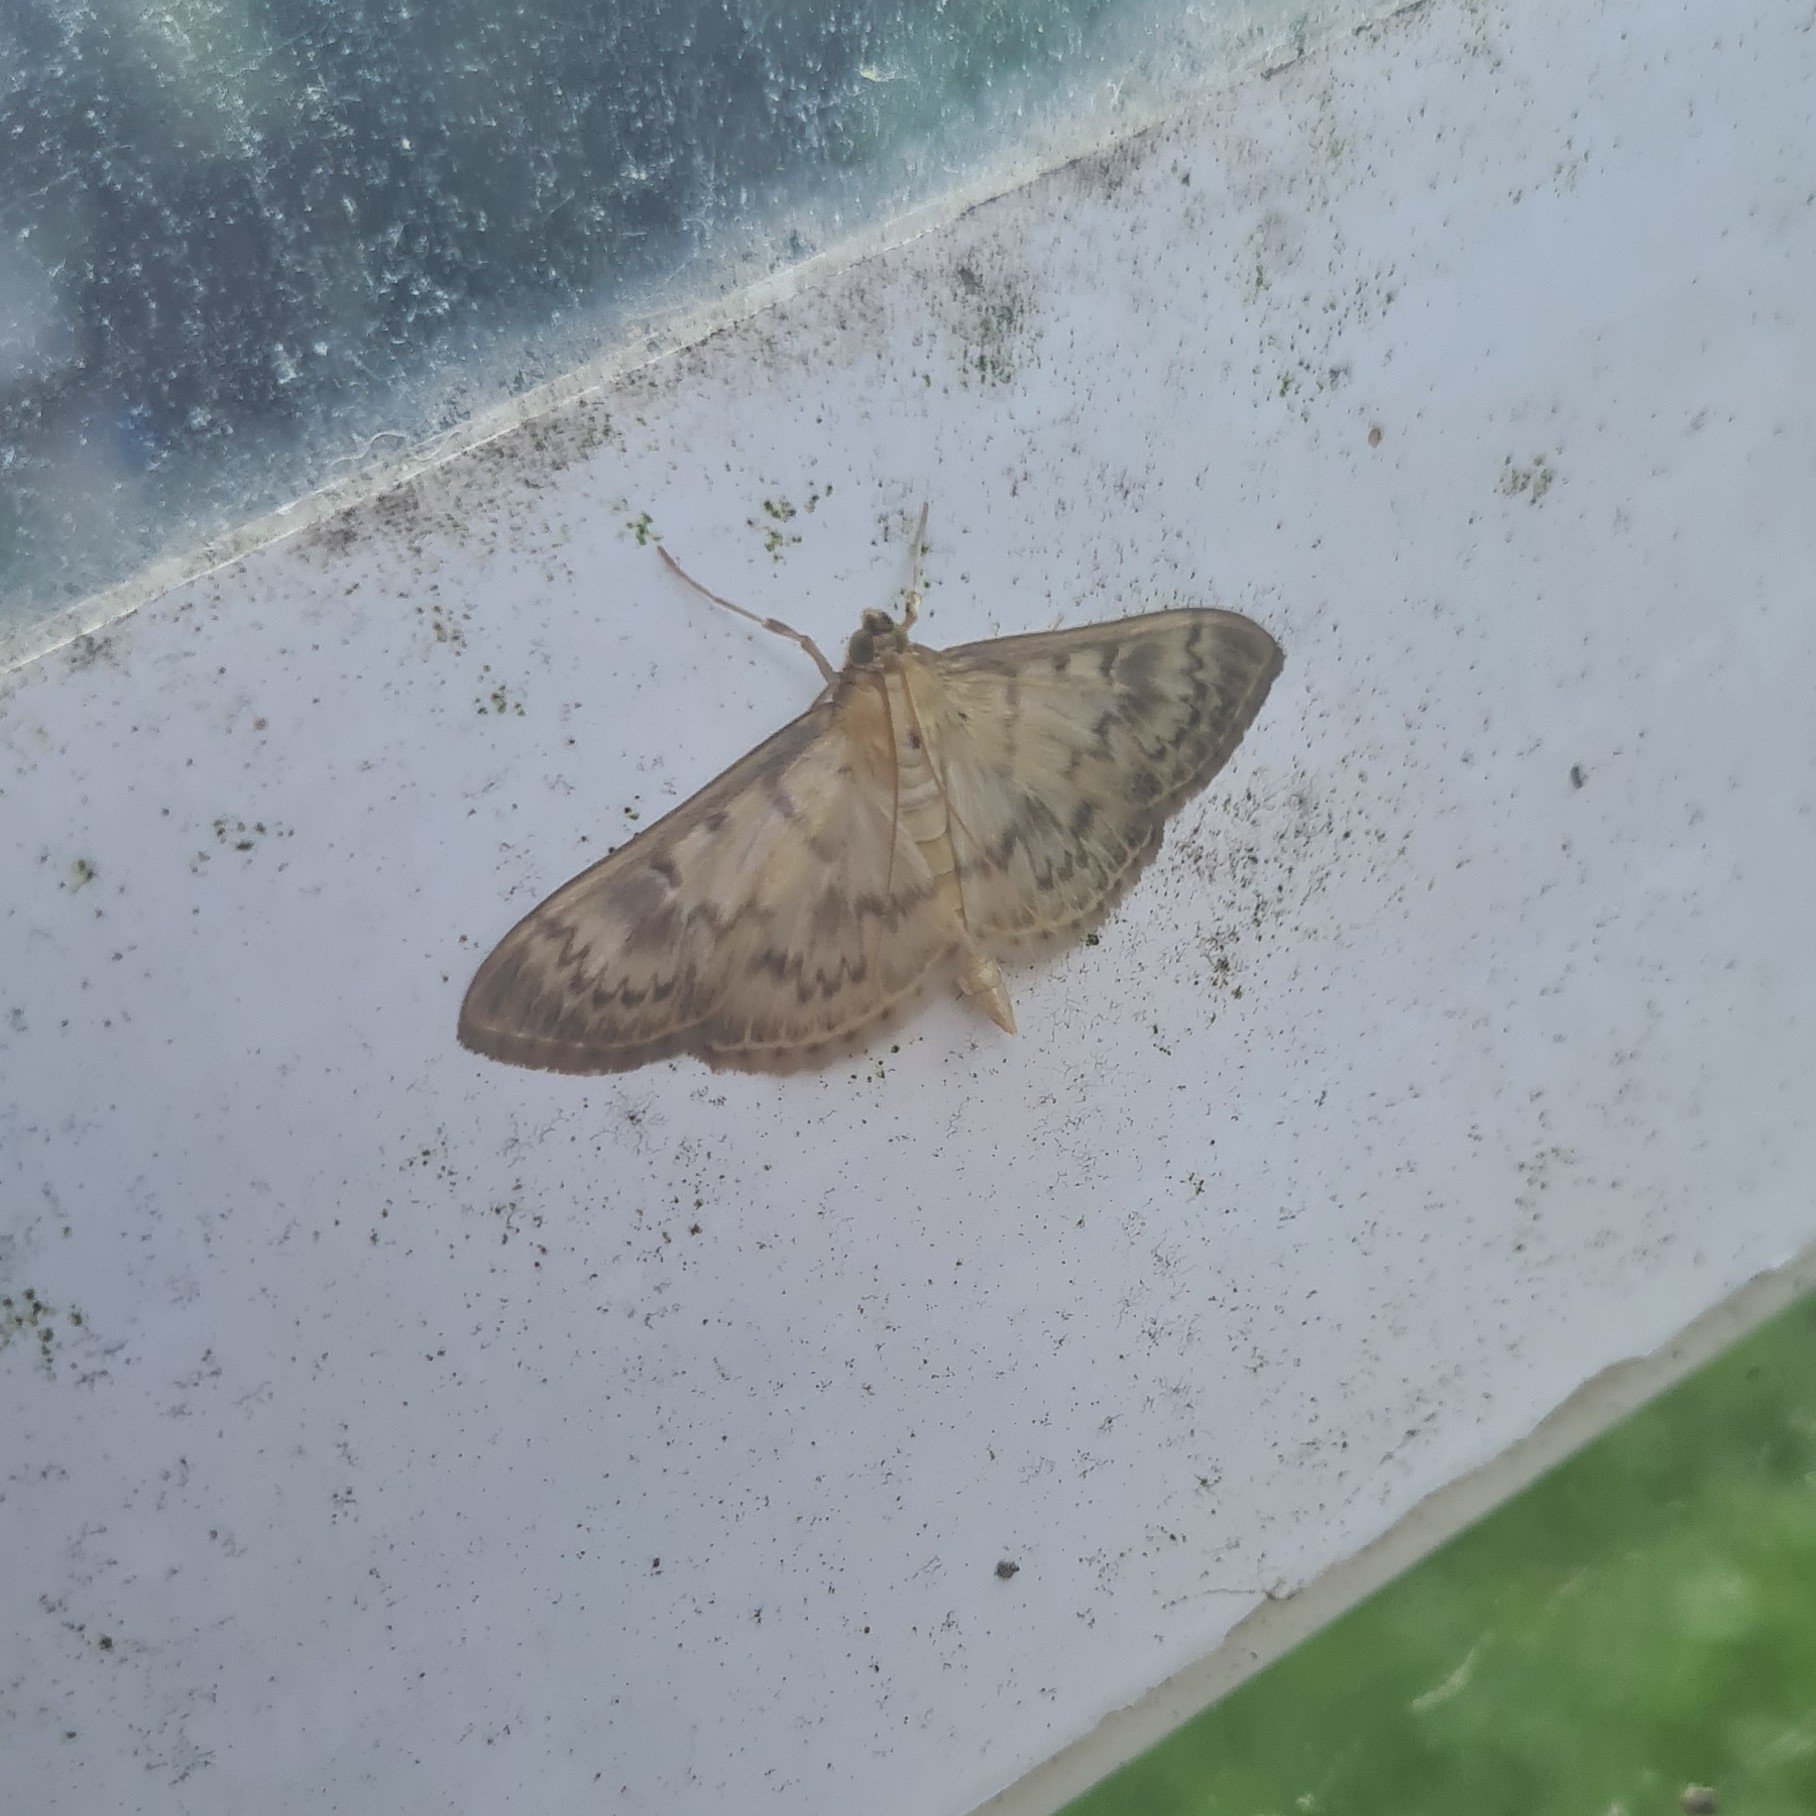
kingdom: Animalia
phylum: Arthropoda
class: Insecta
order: Lepidoptera
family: Crambidae
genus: Patania
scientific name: Patania ruralis
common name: Mother of pearl
